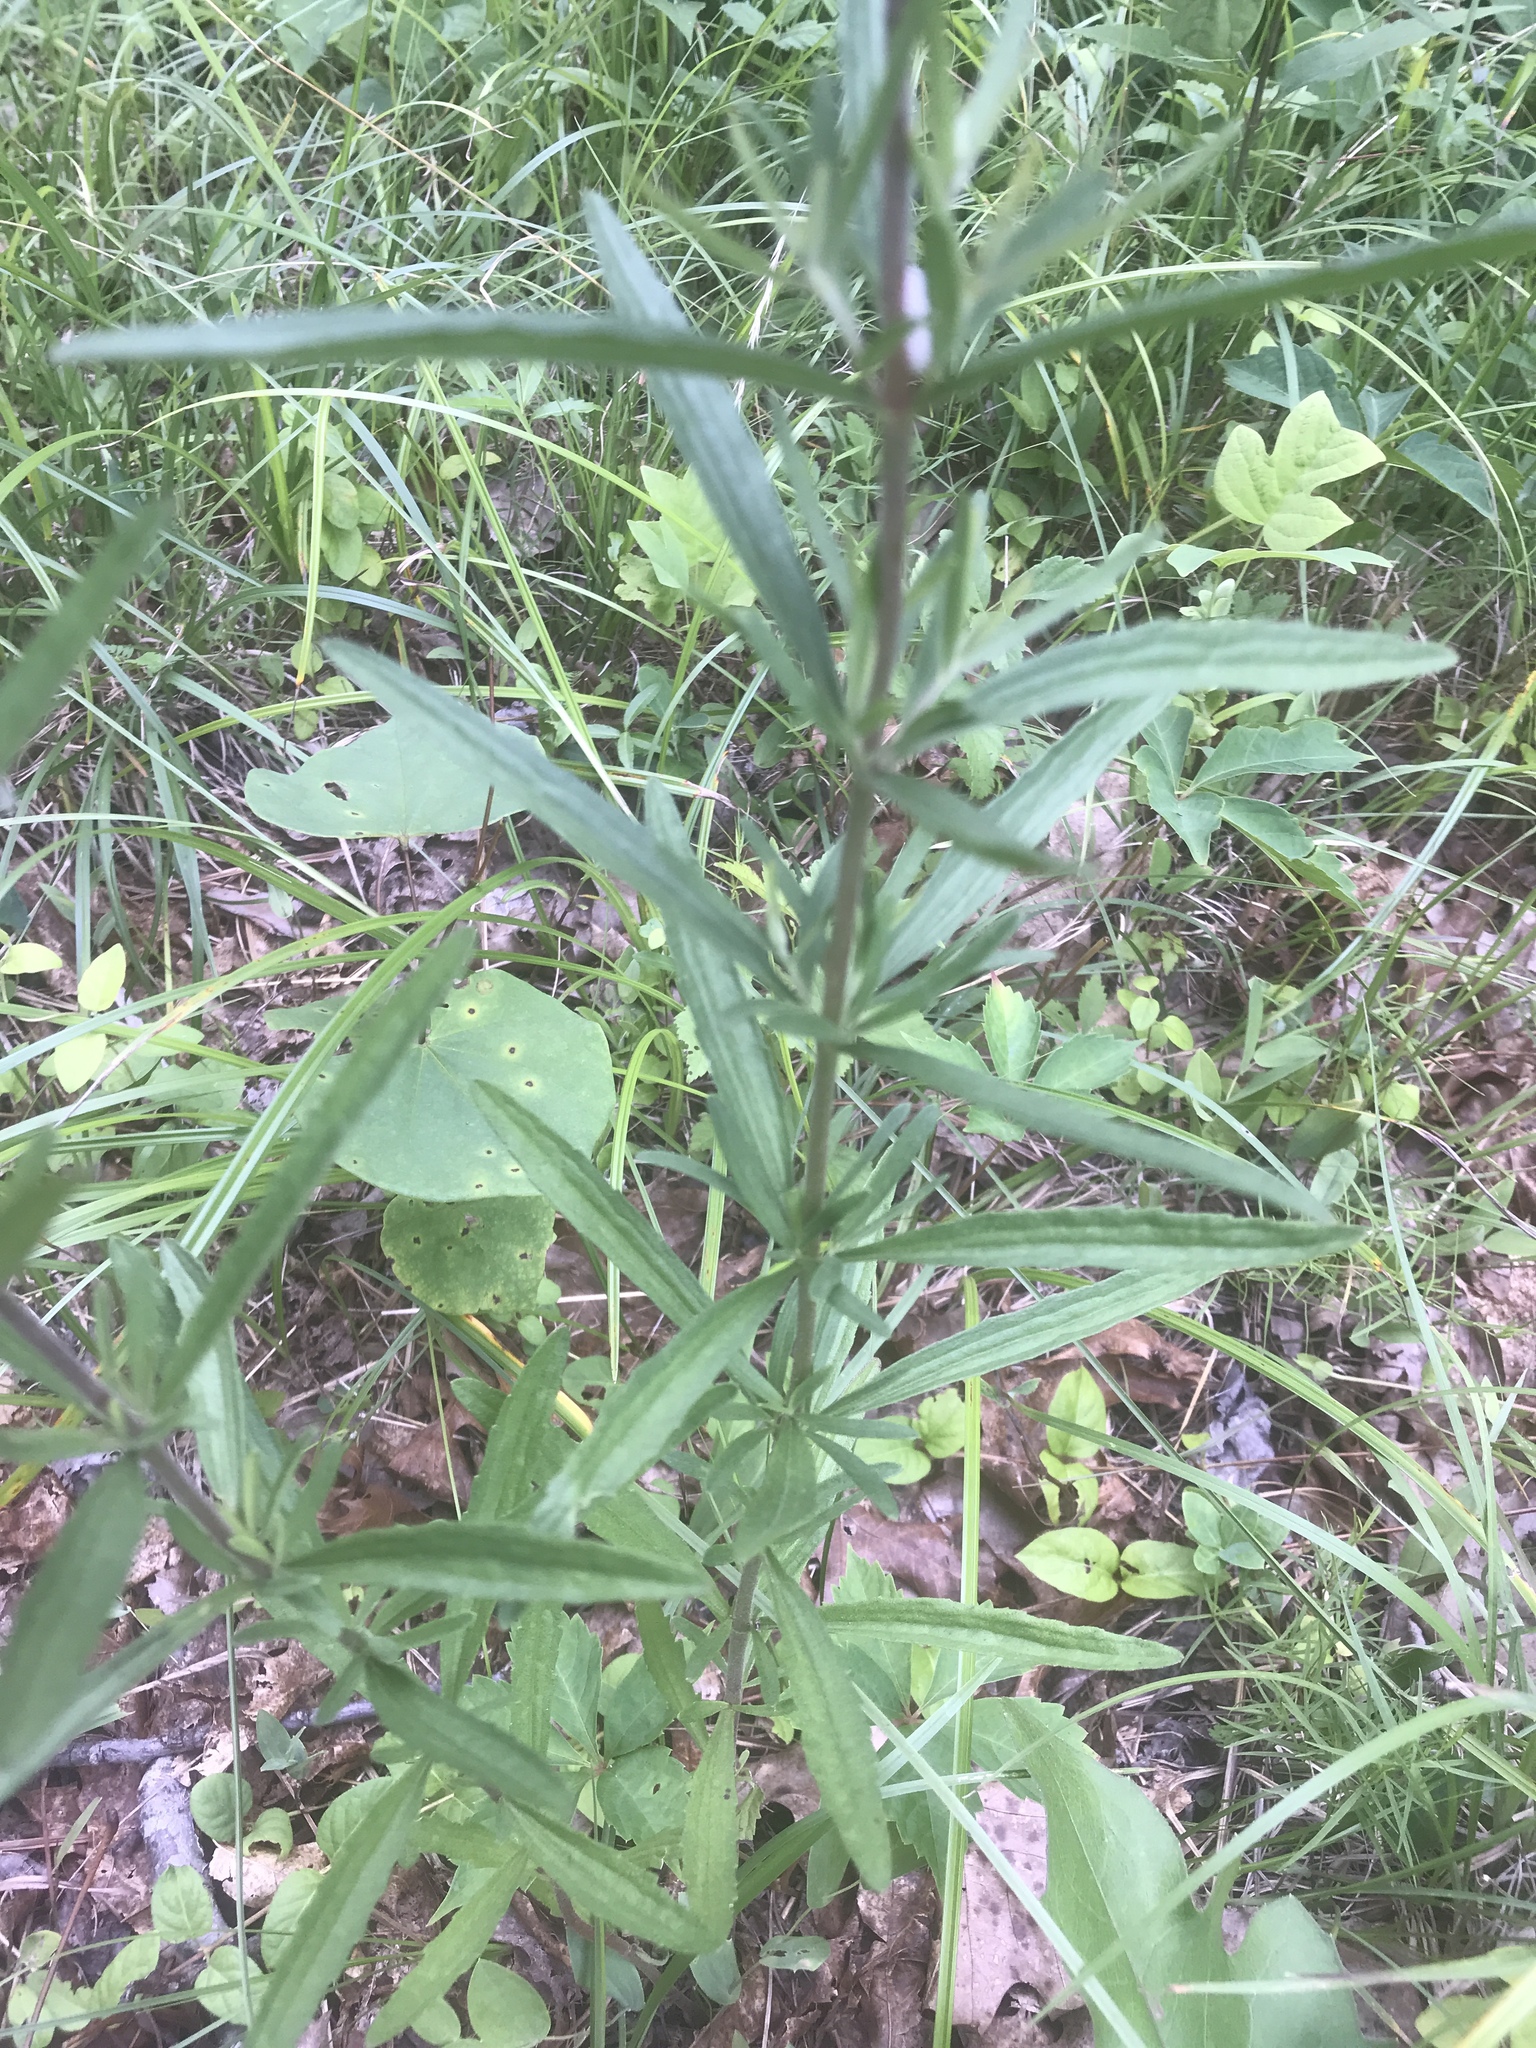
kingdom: Plantae
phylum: Tracheophyta
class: Magnoliopsida
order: Asterales
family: Asteraceae
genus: Eupatorium
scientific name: Eupatorium torreyanum
